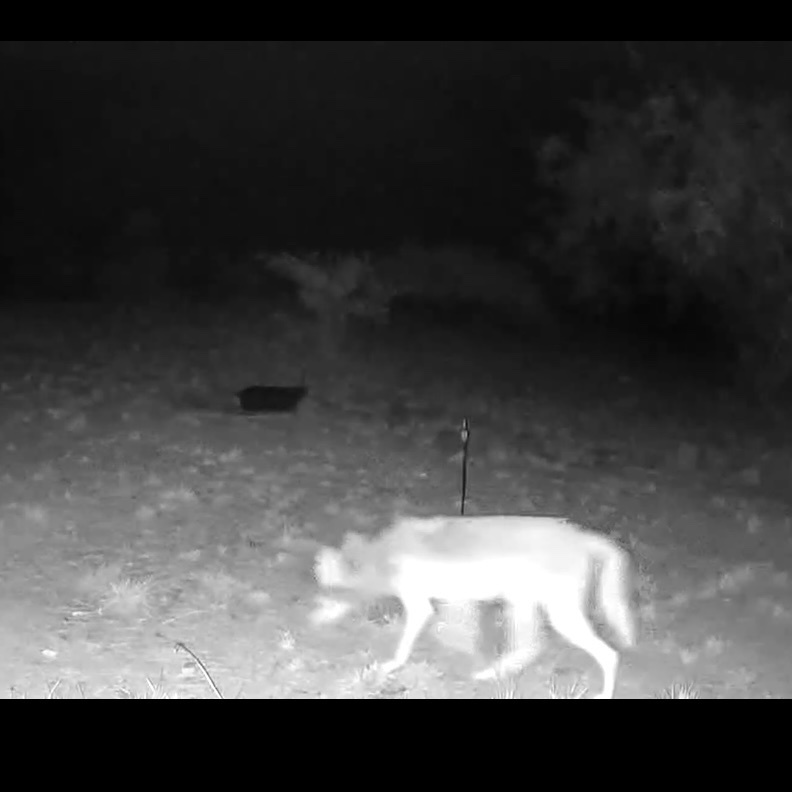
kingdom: Animalia
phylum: Chordata
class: Mammalia
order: Carnivora
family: Canidae
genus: Canis
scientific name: Canis latrans
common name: Coyote
